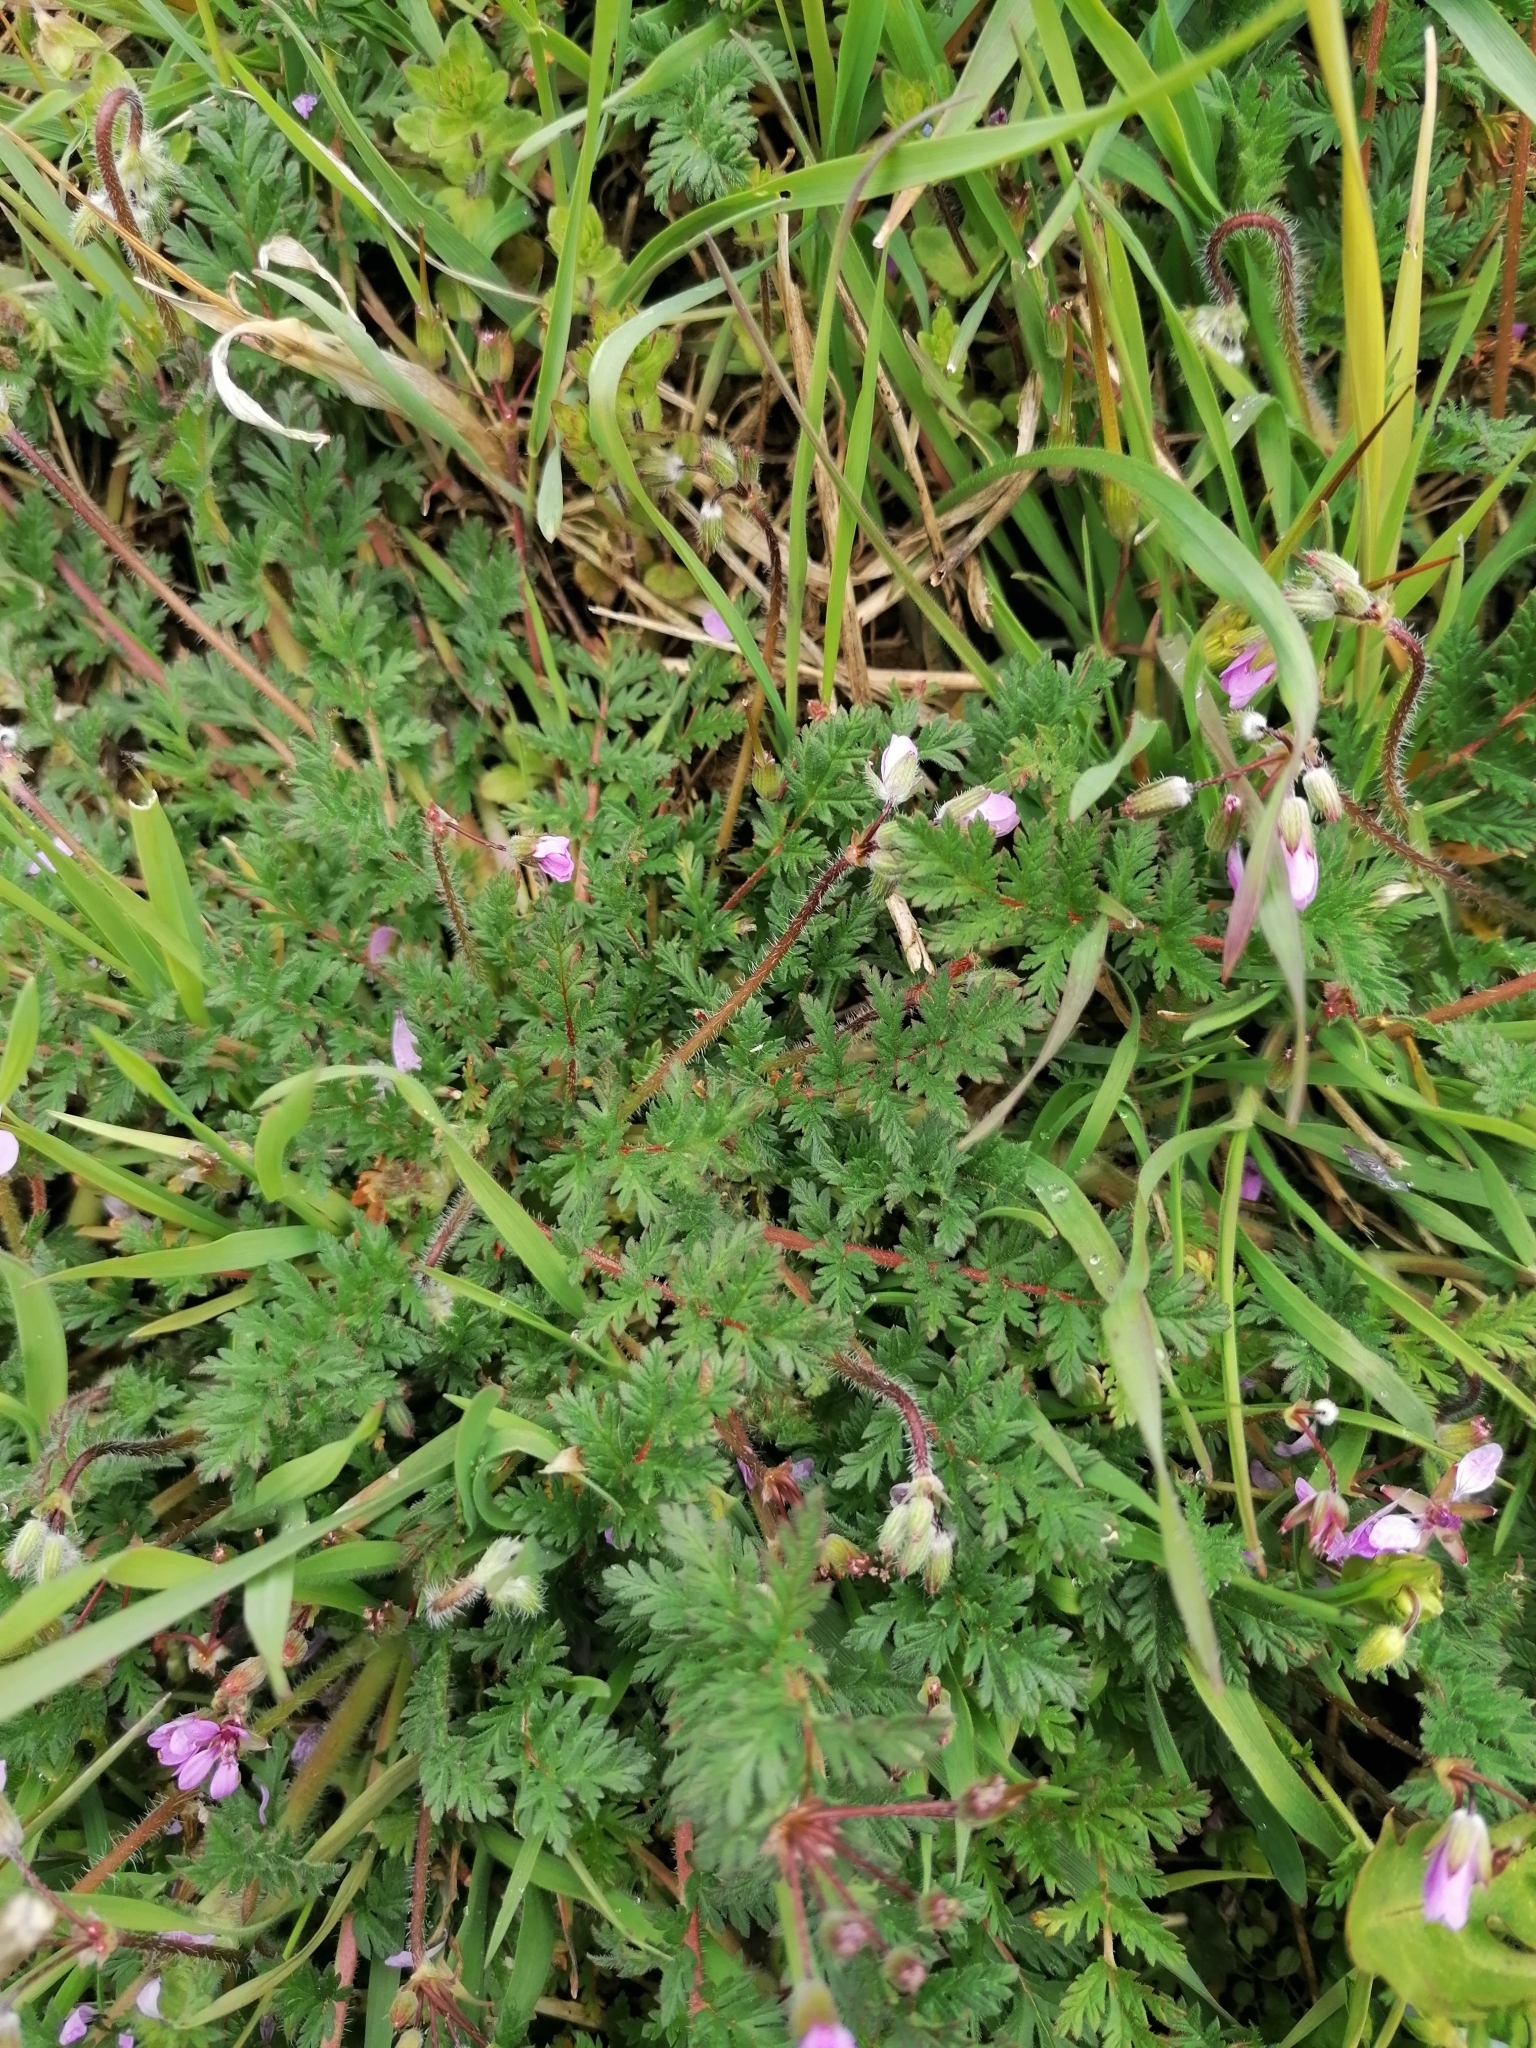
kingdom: Plantae
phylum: Tracheophyta
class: Magnoliopsida
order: Geraniales
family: Geraniaceae
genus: Erodium
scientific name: Erodium cicutarium
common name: Common stork's-bill
